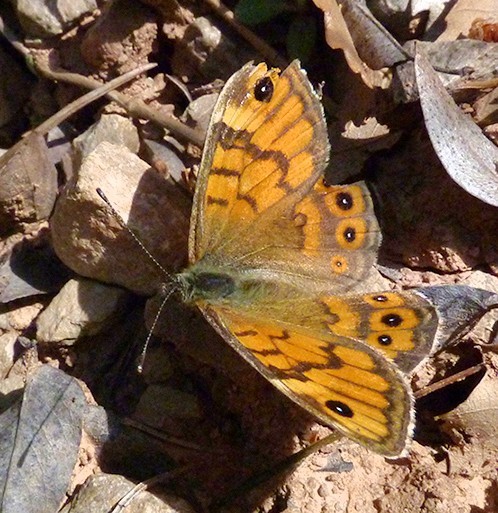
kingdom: Animalia
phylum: Arthropoda
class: Insecta
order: Lepidoptera
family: Nymphalidae
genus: Pararge
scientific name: Pararge Lasiommata megera
